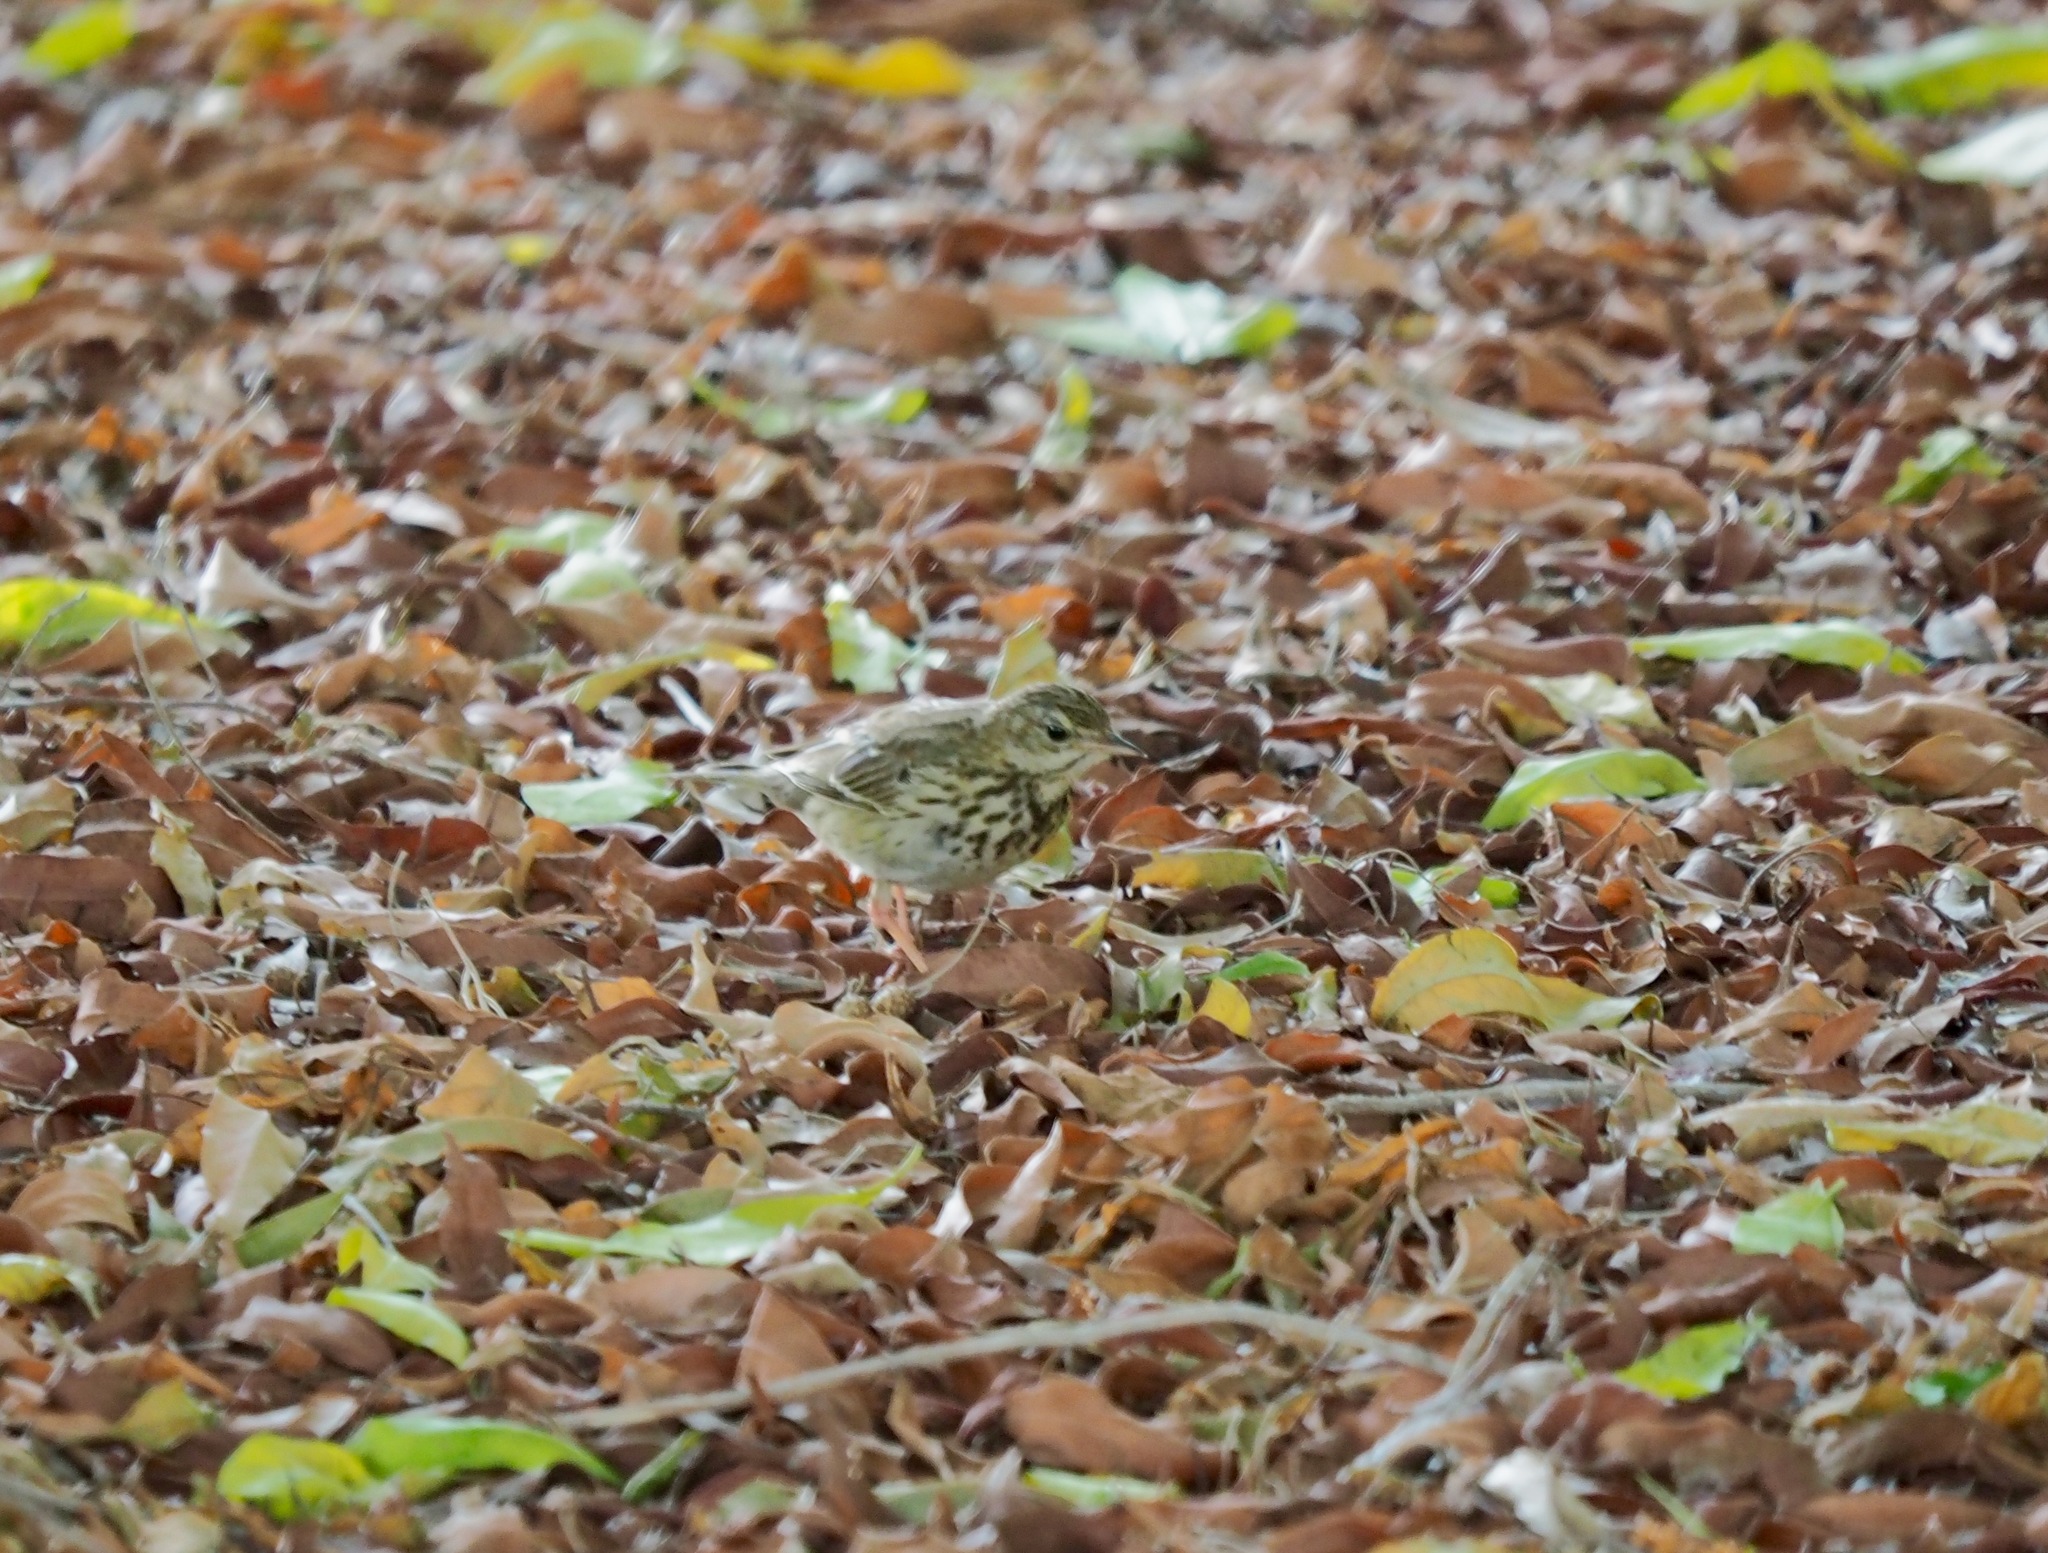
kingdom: Animalia
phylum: Chordata
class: Aves
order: Passeriformes
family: Motacillidae
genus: Anthus
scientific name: Anthus trivialis
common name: Tree pipit
